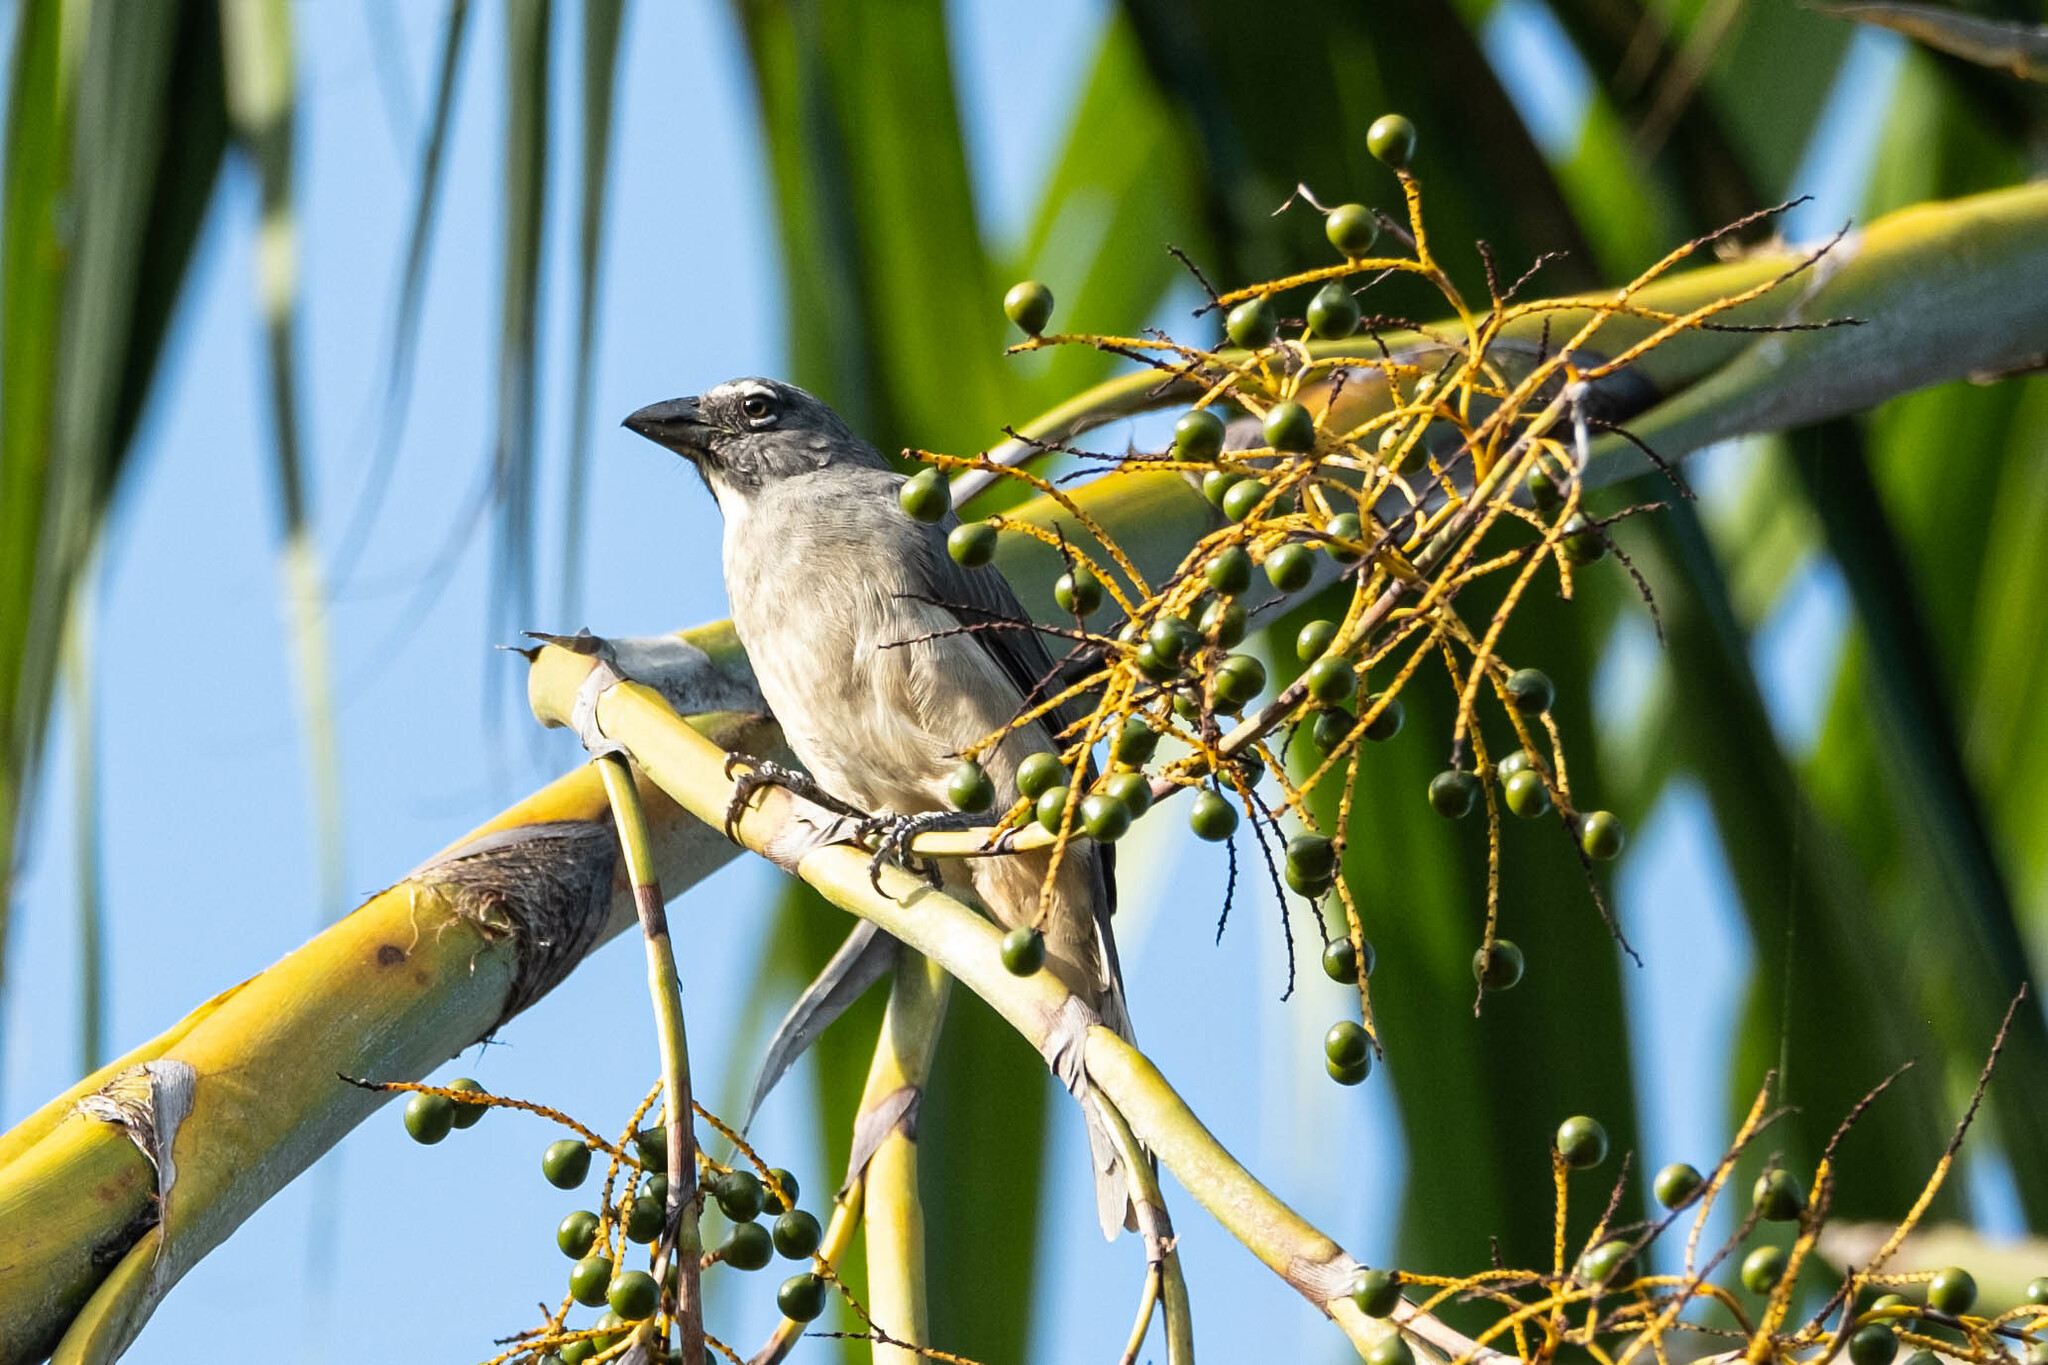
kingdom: Animalia
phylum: Chordata
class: Aves
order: Passeriformes
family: Thraupidae
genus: Saltator
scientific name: Saltator olivascens
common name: Caribbean grey saltator
